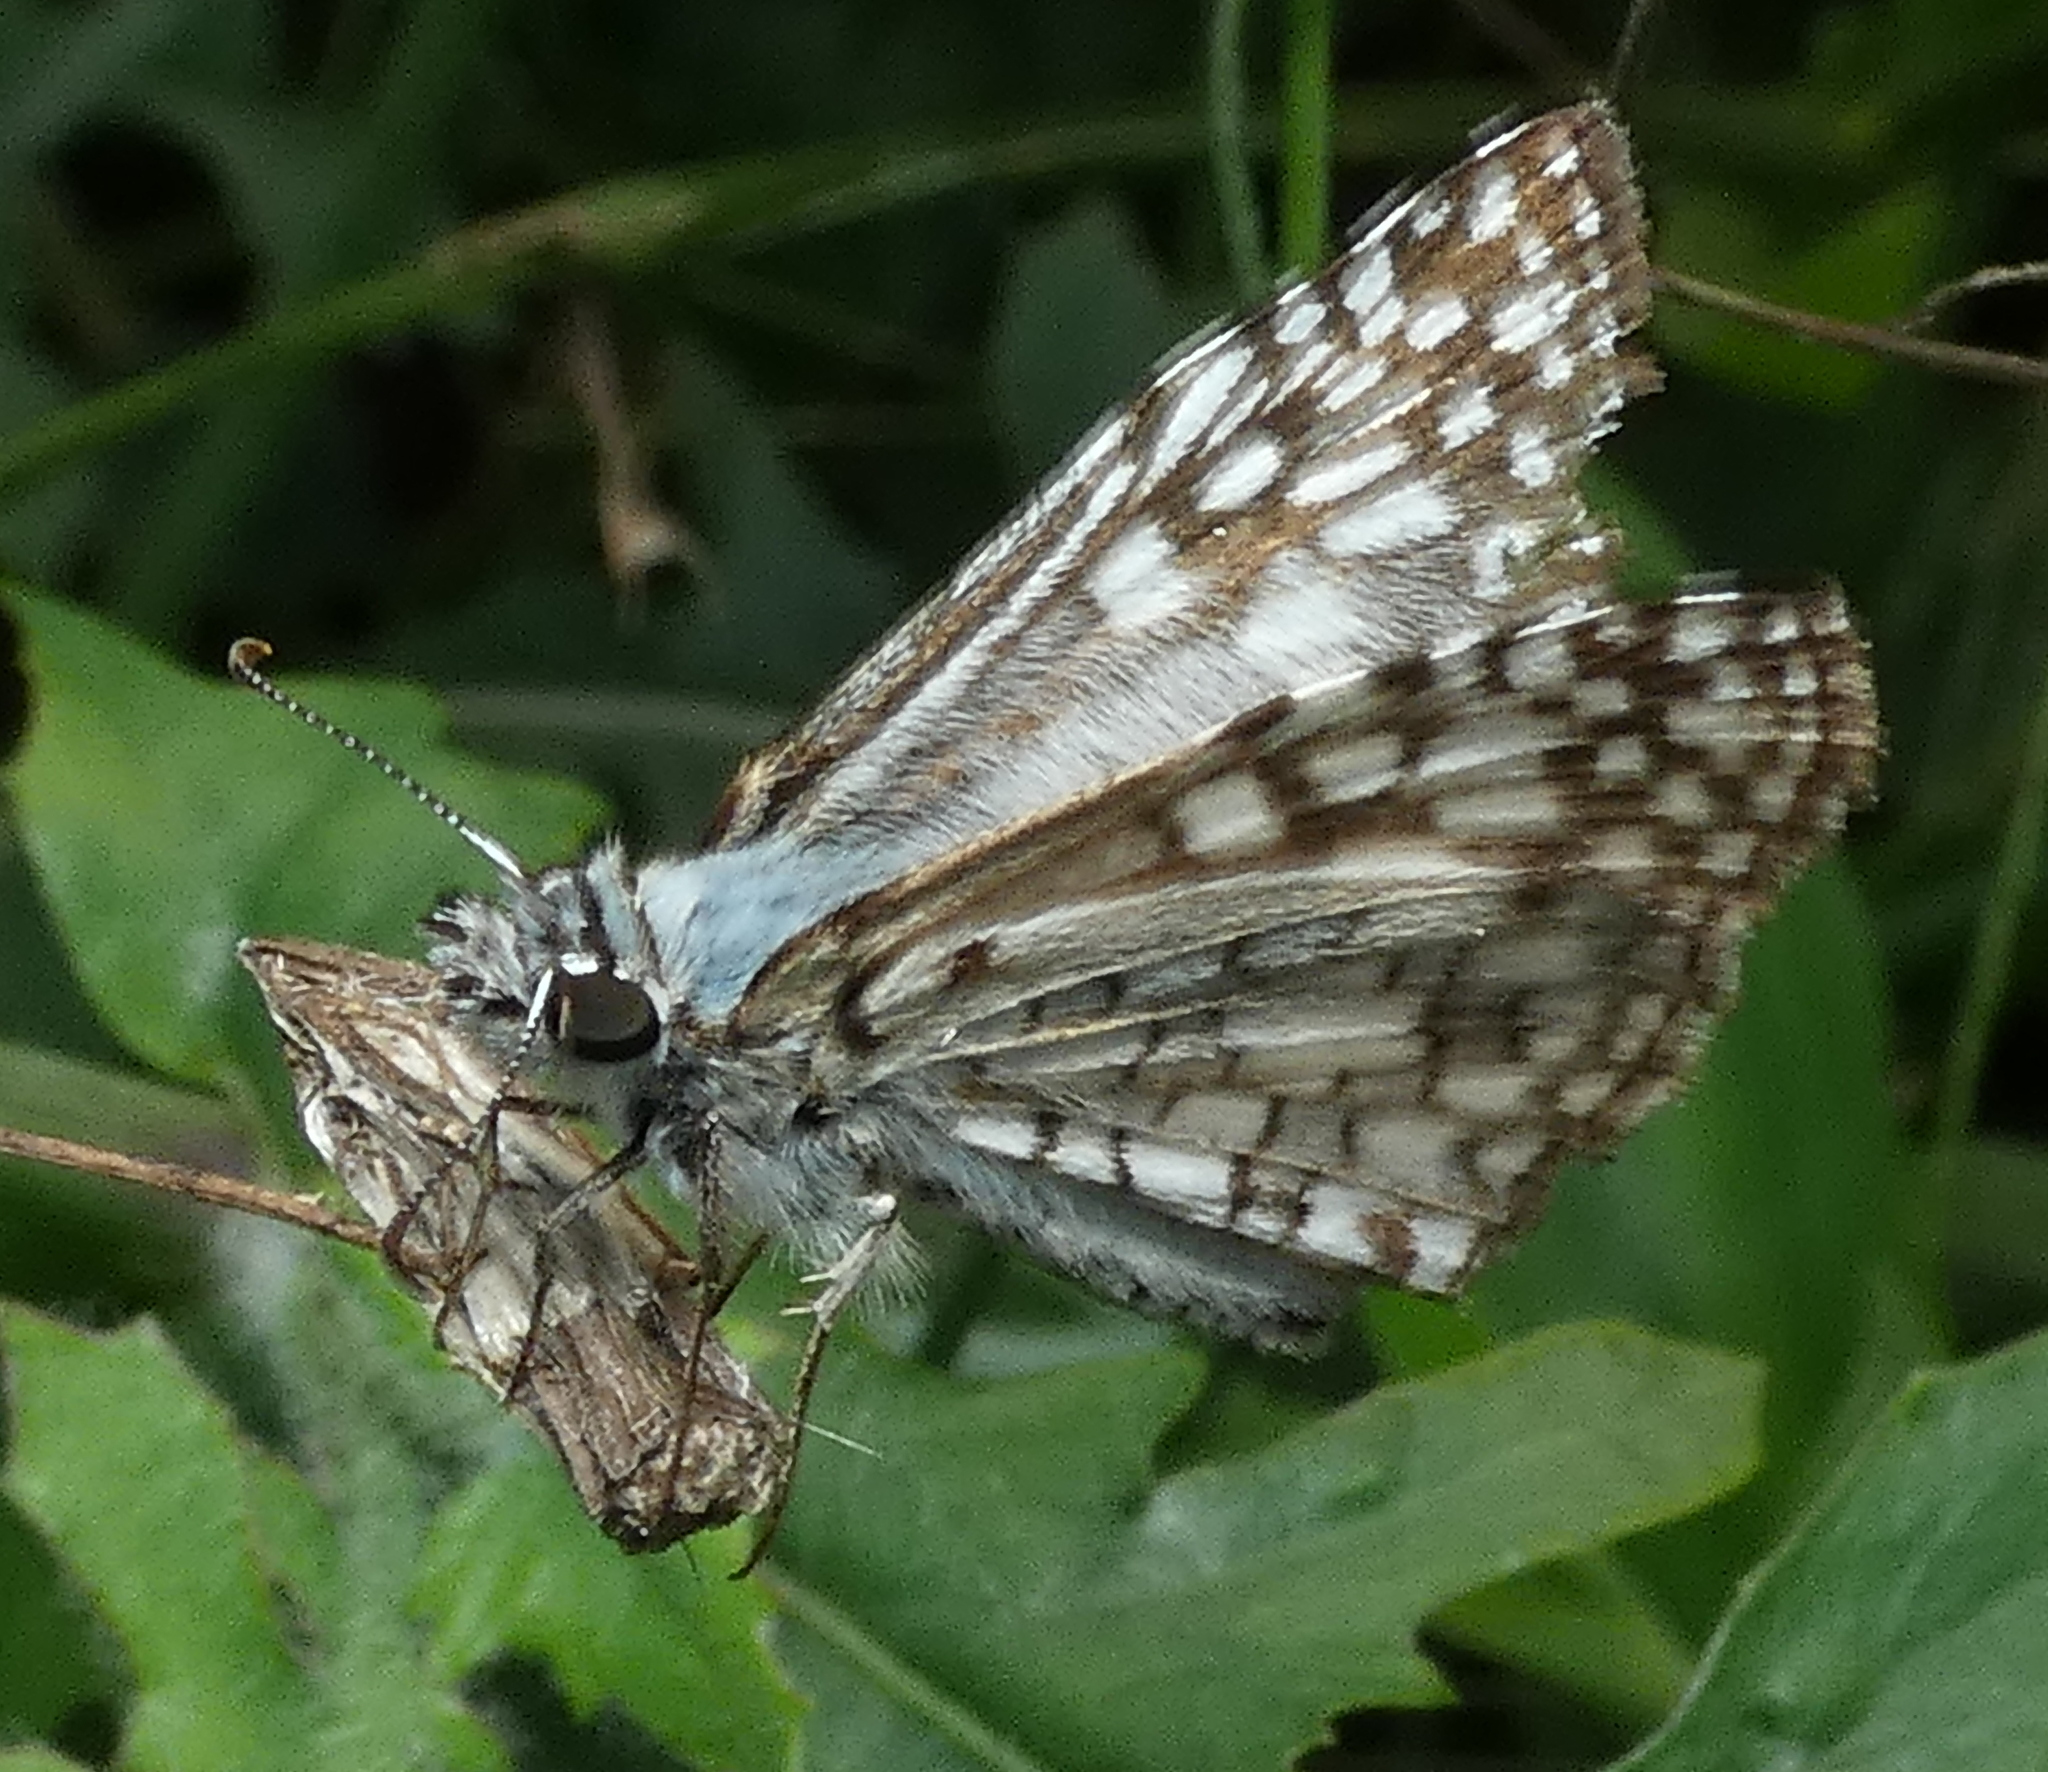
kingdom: Animalia
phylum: Arthropoda
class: Insecta
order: Lepidoptera
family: Hesperiidae
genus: Pyrgus
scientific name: Pyrgus oileus
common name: Tropical checkered-skipper
